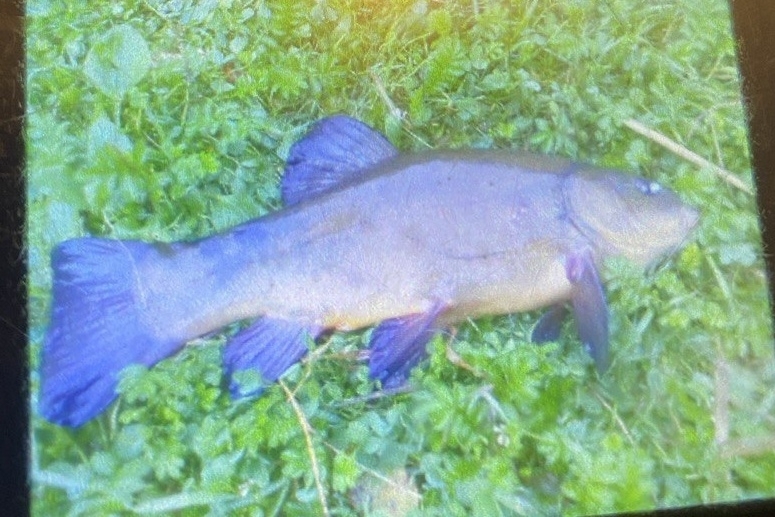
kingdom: Animalia
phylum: Chordata
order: Cypriniformes
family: Cyprinidae
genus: Tinca
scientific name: Tinca tinca
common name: Tench
